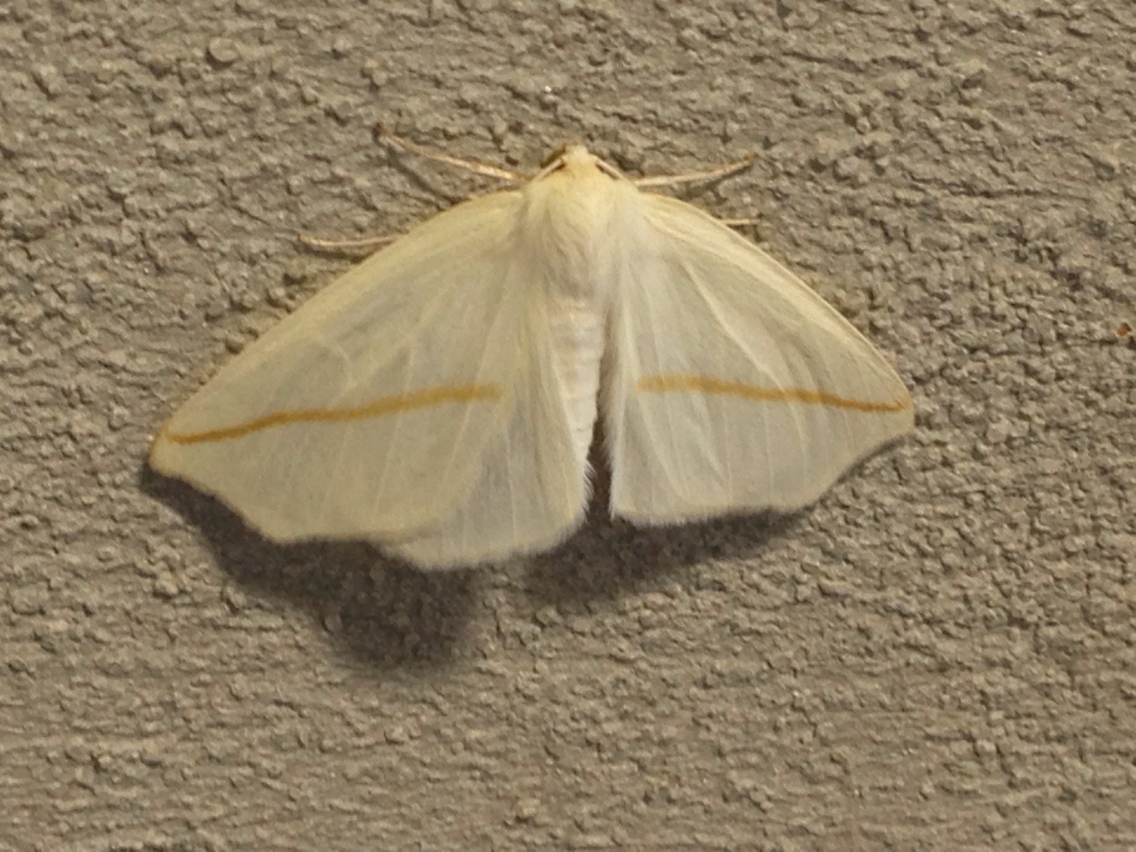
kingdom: Animalia
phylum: Arthropoda
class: Insecta
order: Lepidoptera
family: Geometridae
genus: Tetracis
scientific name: Tetracis crocallata
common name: Yellow slant-line
